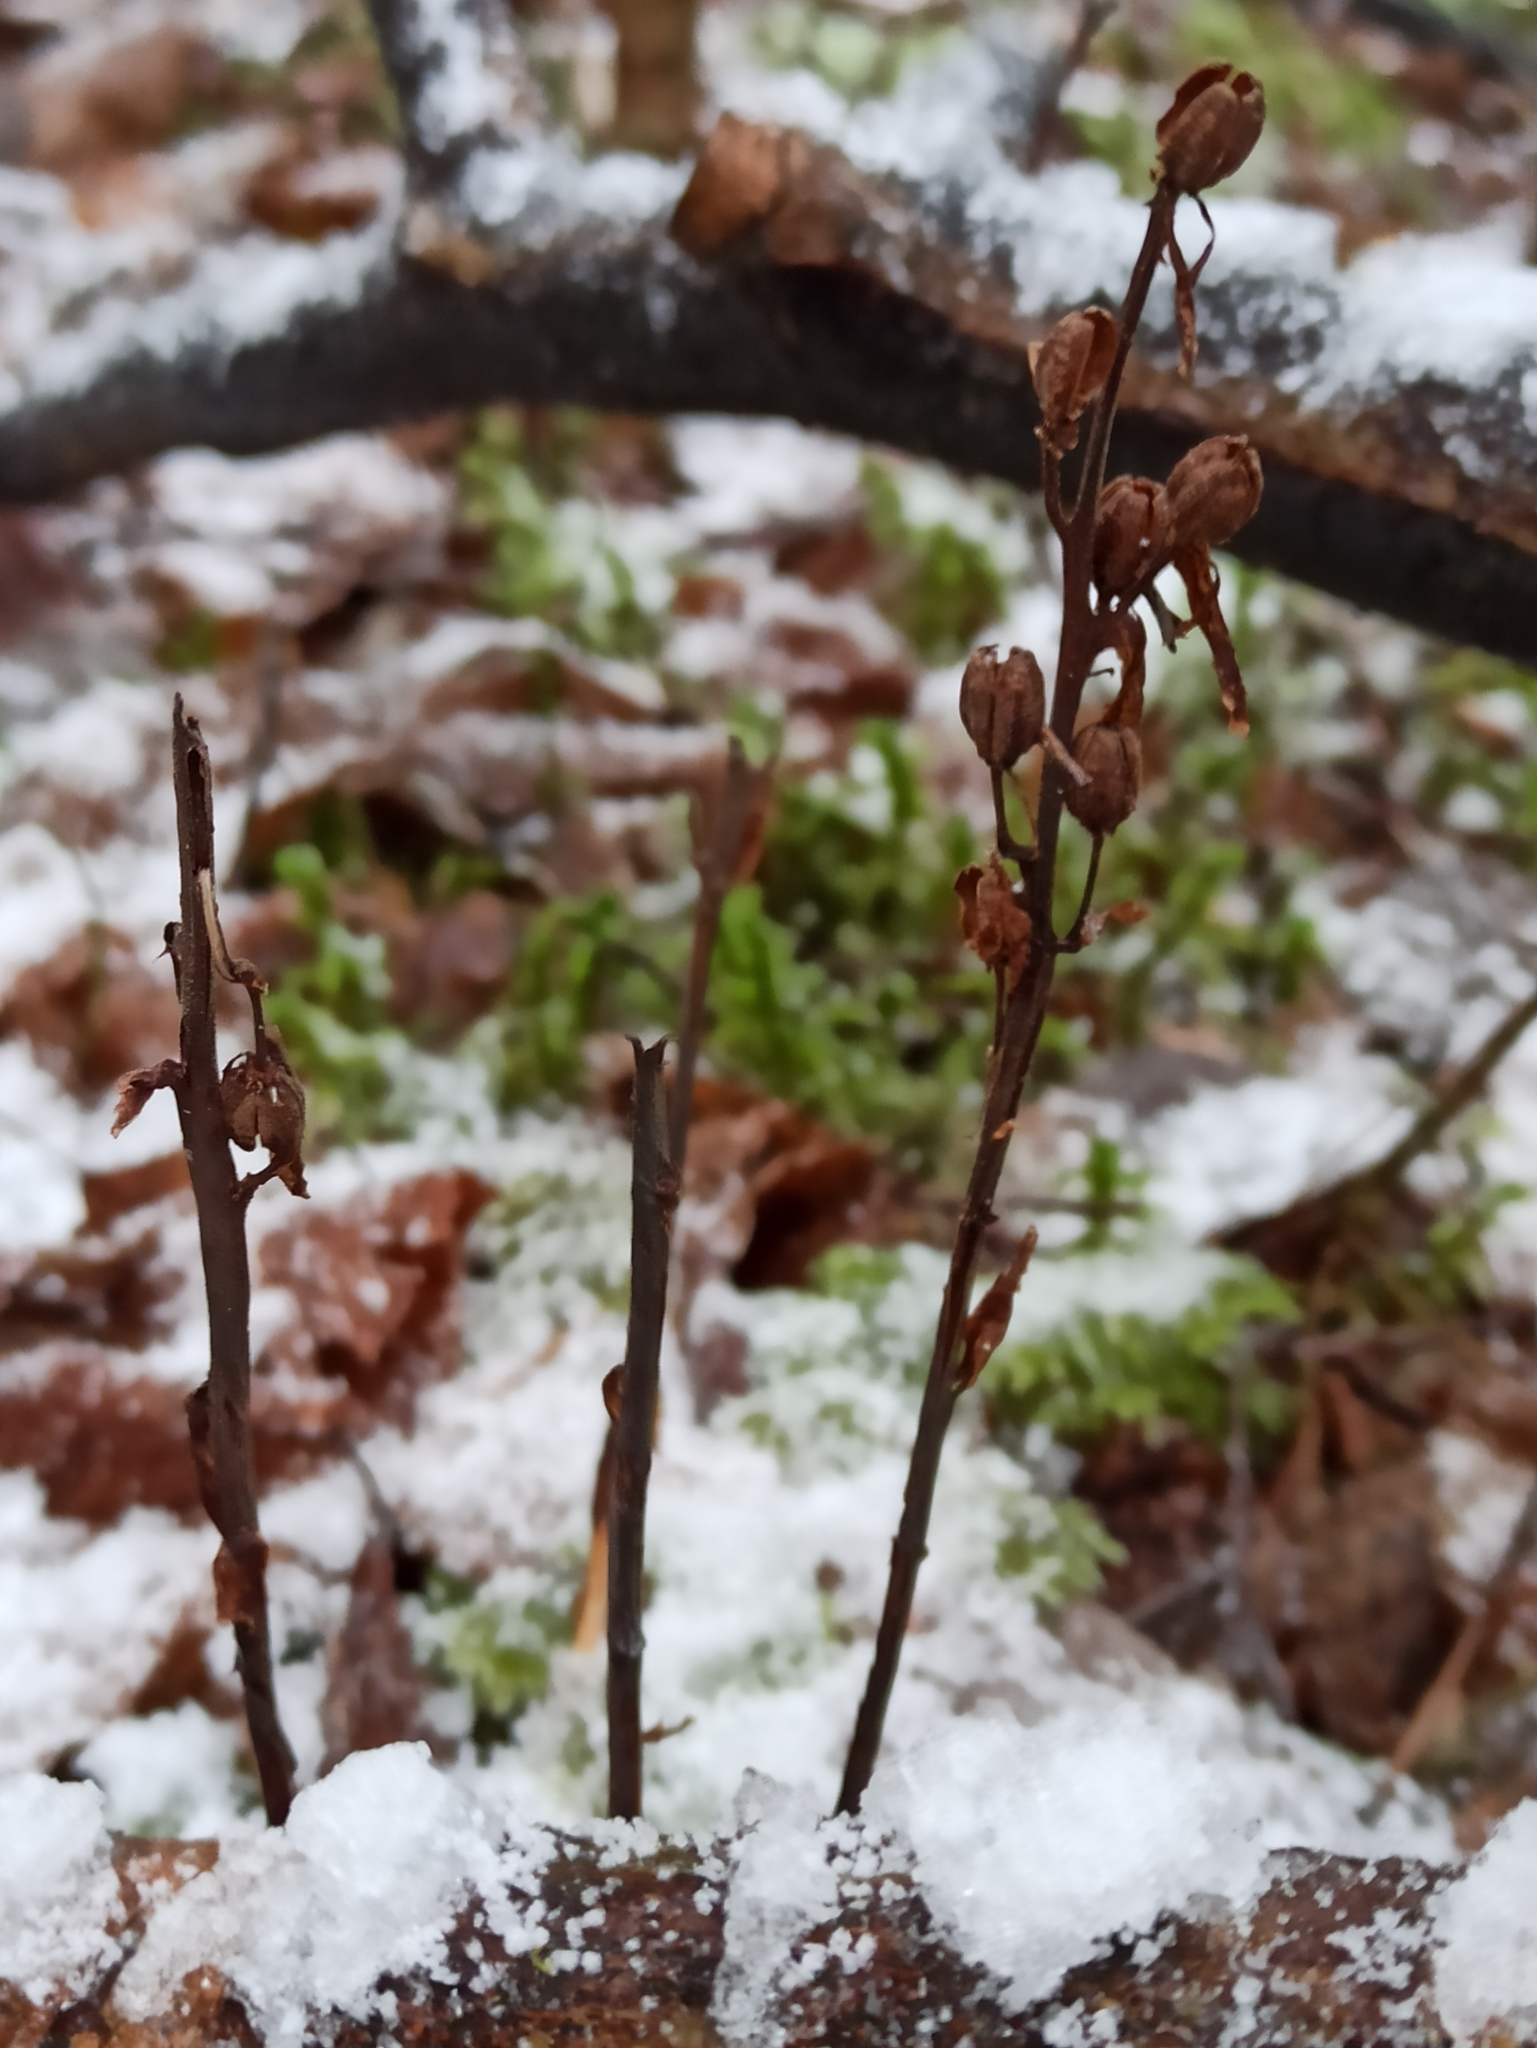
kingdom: Plantae
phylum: Tracheophyta
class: Magnoliopsida
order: Ericales
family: Ericaceae
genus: Hypopitys
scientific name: Hypopitys monotropa
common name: Yellow bird's-nest
